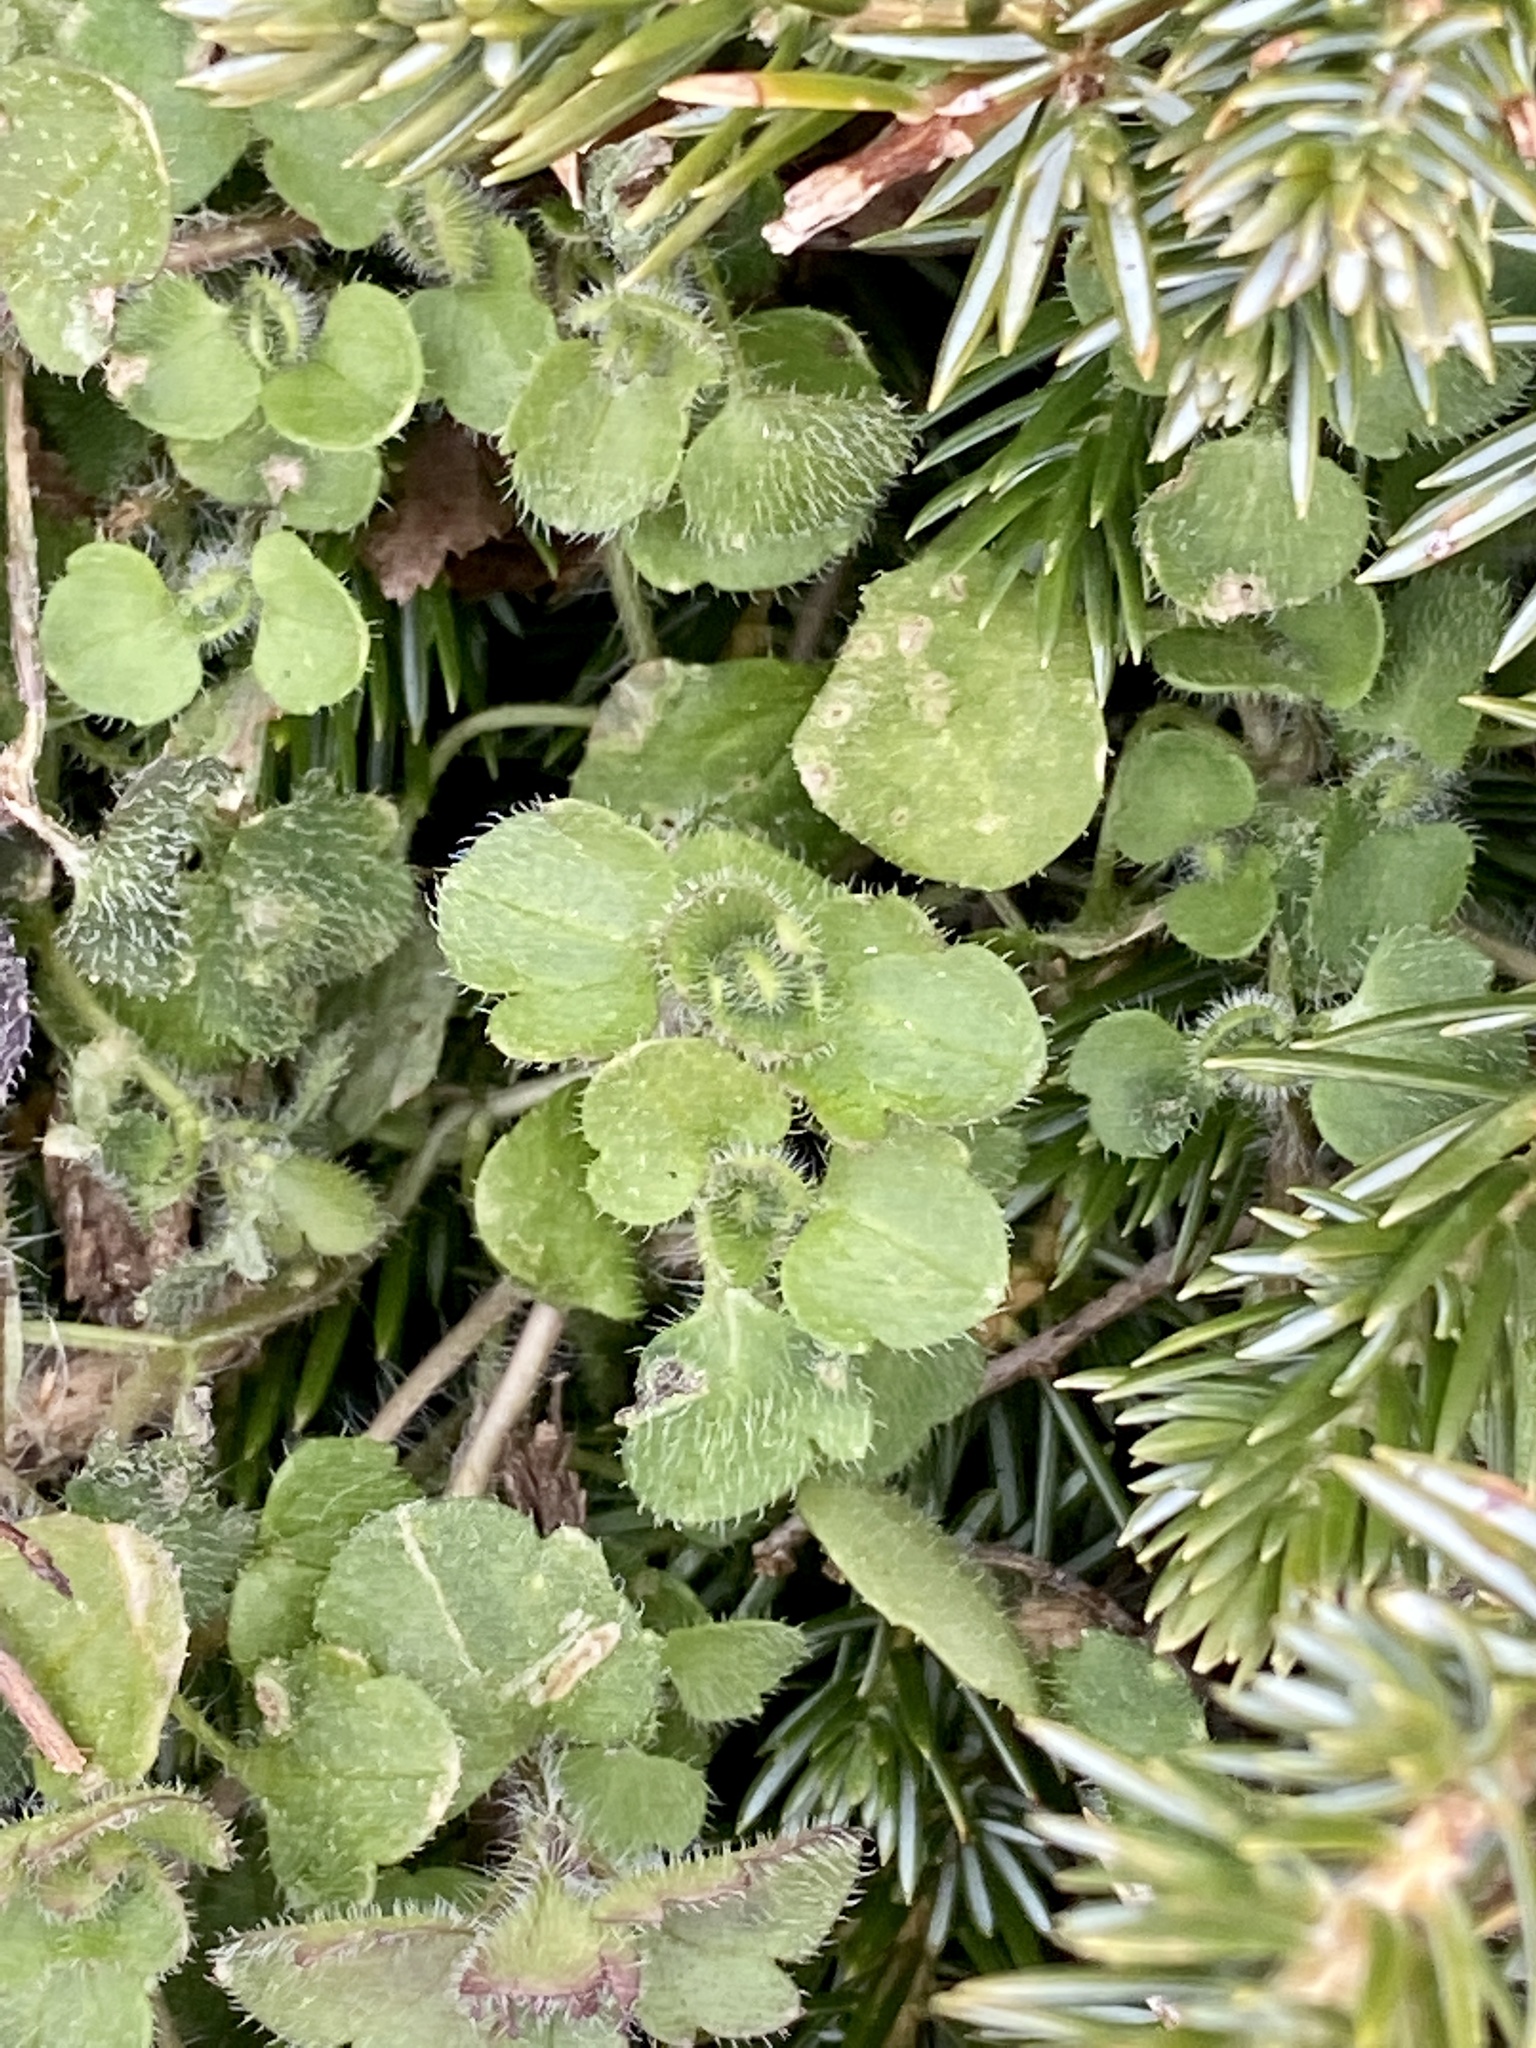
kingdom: Plantae
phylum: Tracheophyta
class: Magnoliopsida
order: Lamiales
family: Plantaginaceae
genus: Veronica
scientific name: Veronica hederifolia
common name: Ivy-leaved speedwell
